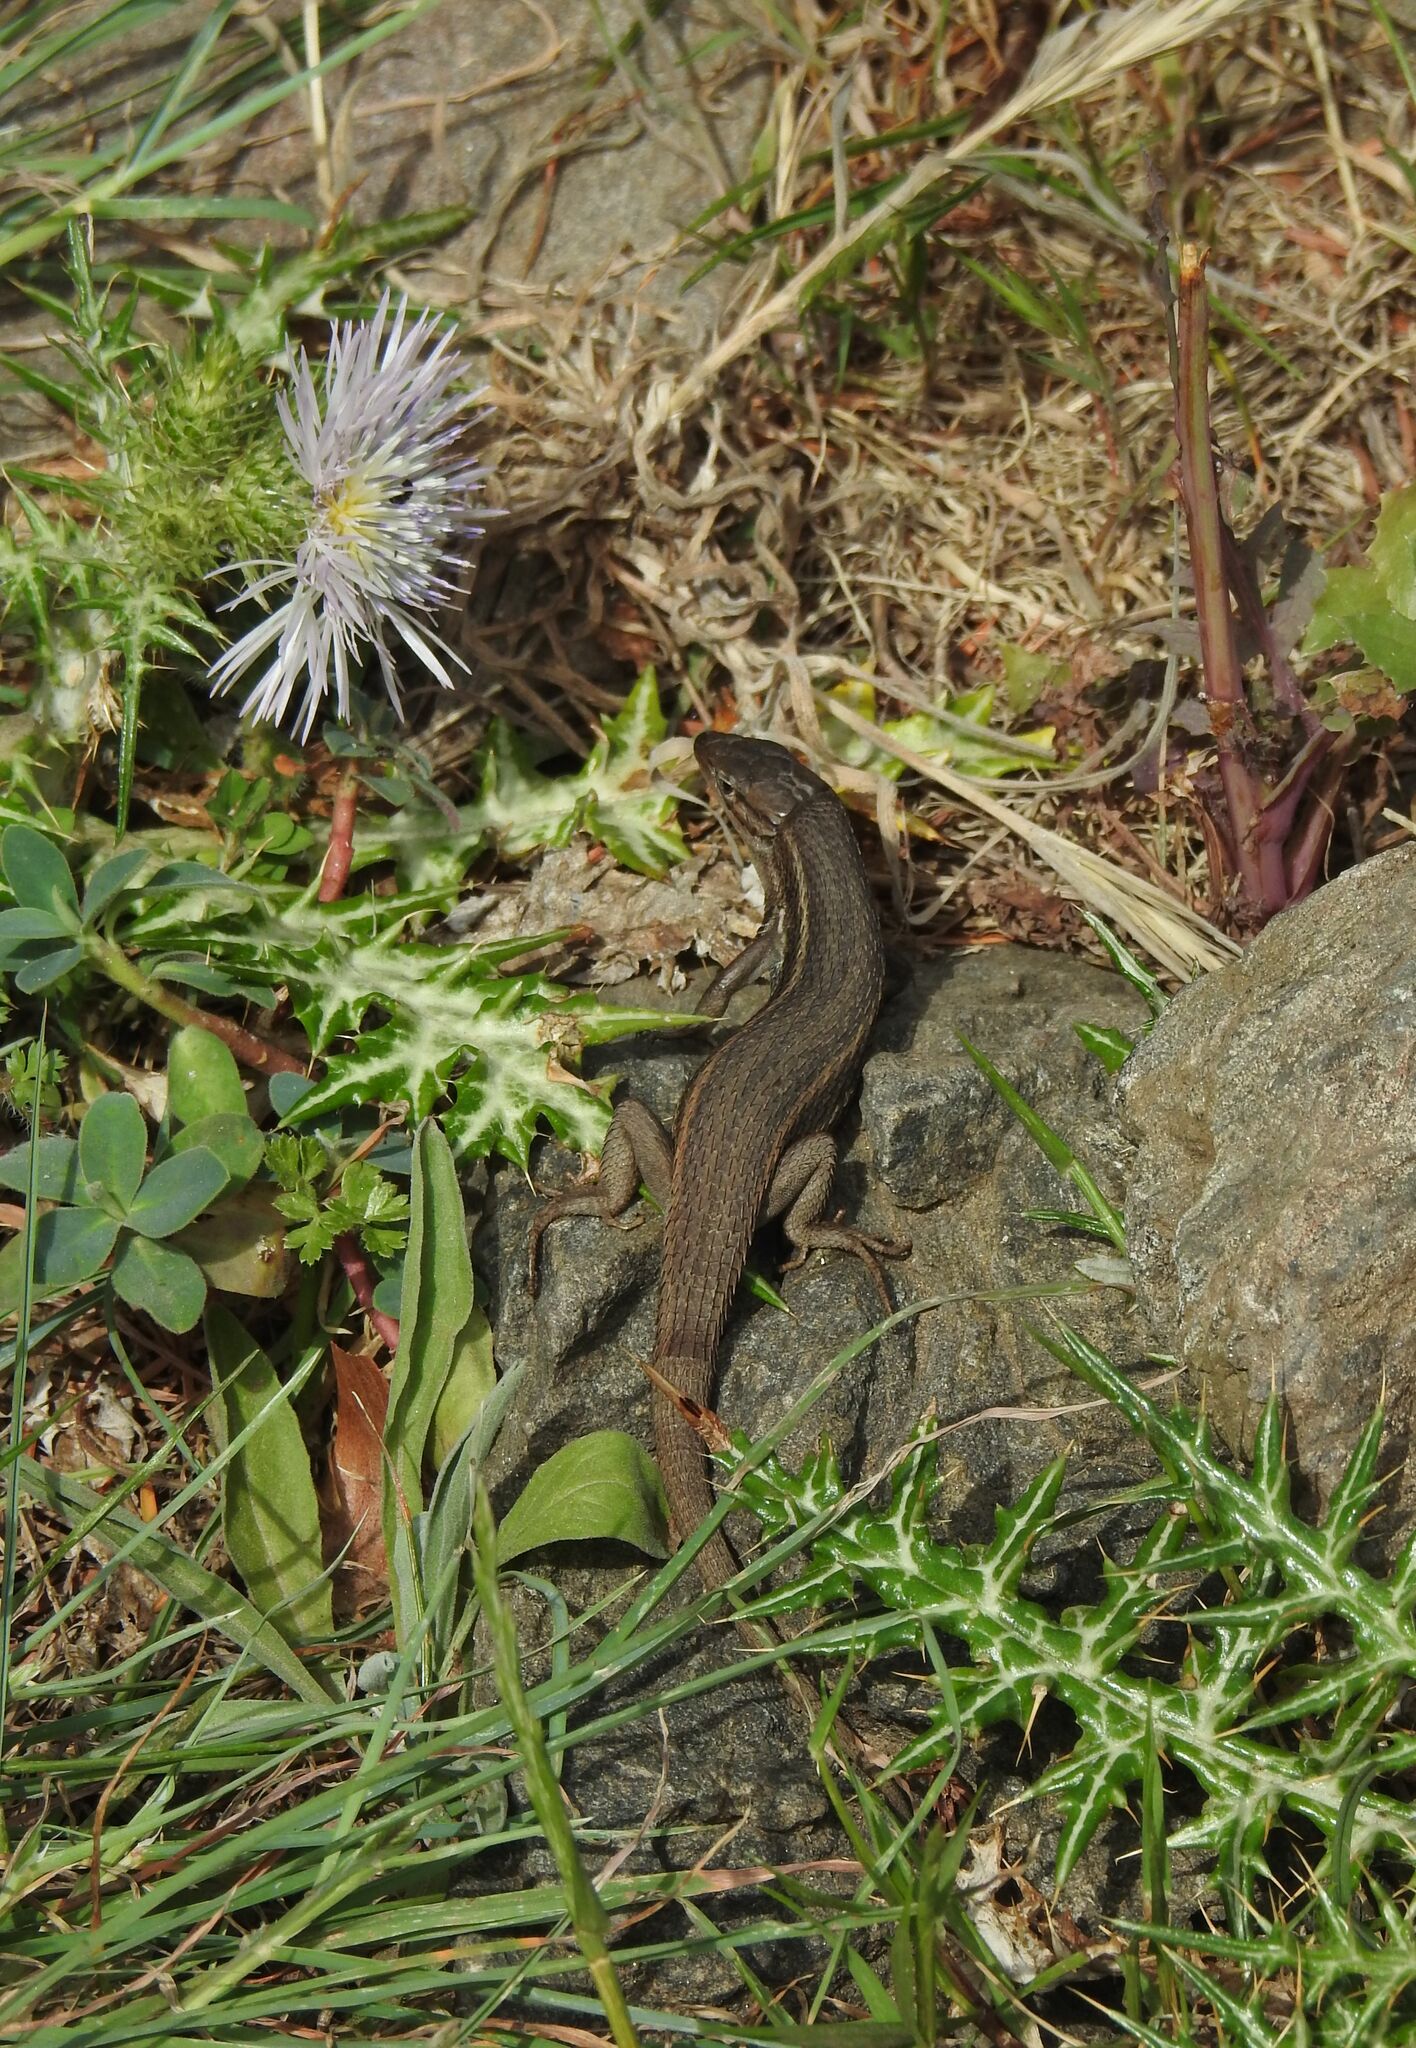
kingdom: Animalia
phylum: Chordata
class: Squamata
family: Lacertidae
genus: Psammodromus
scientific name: Psammodromus algirus
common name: Algerian psammodromus
